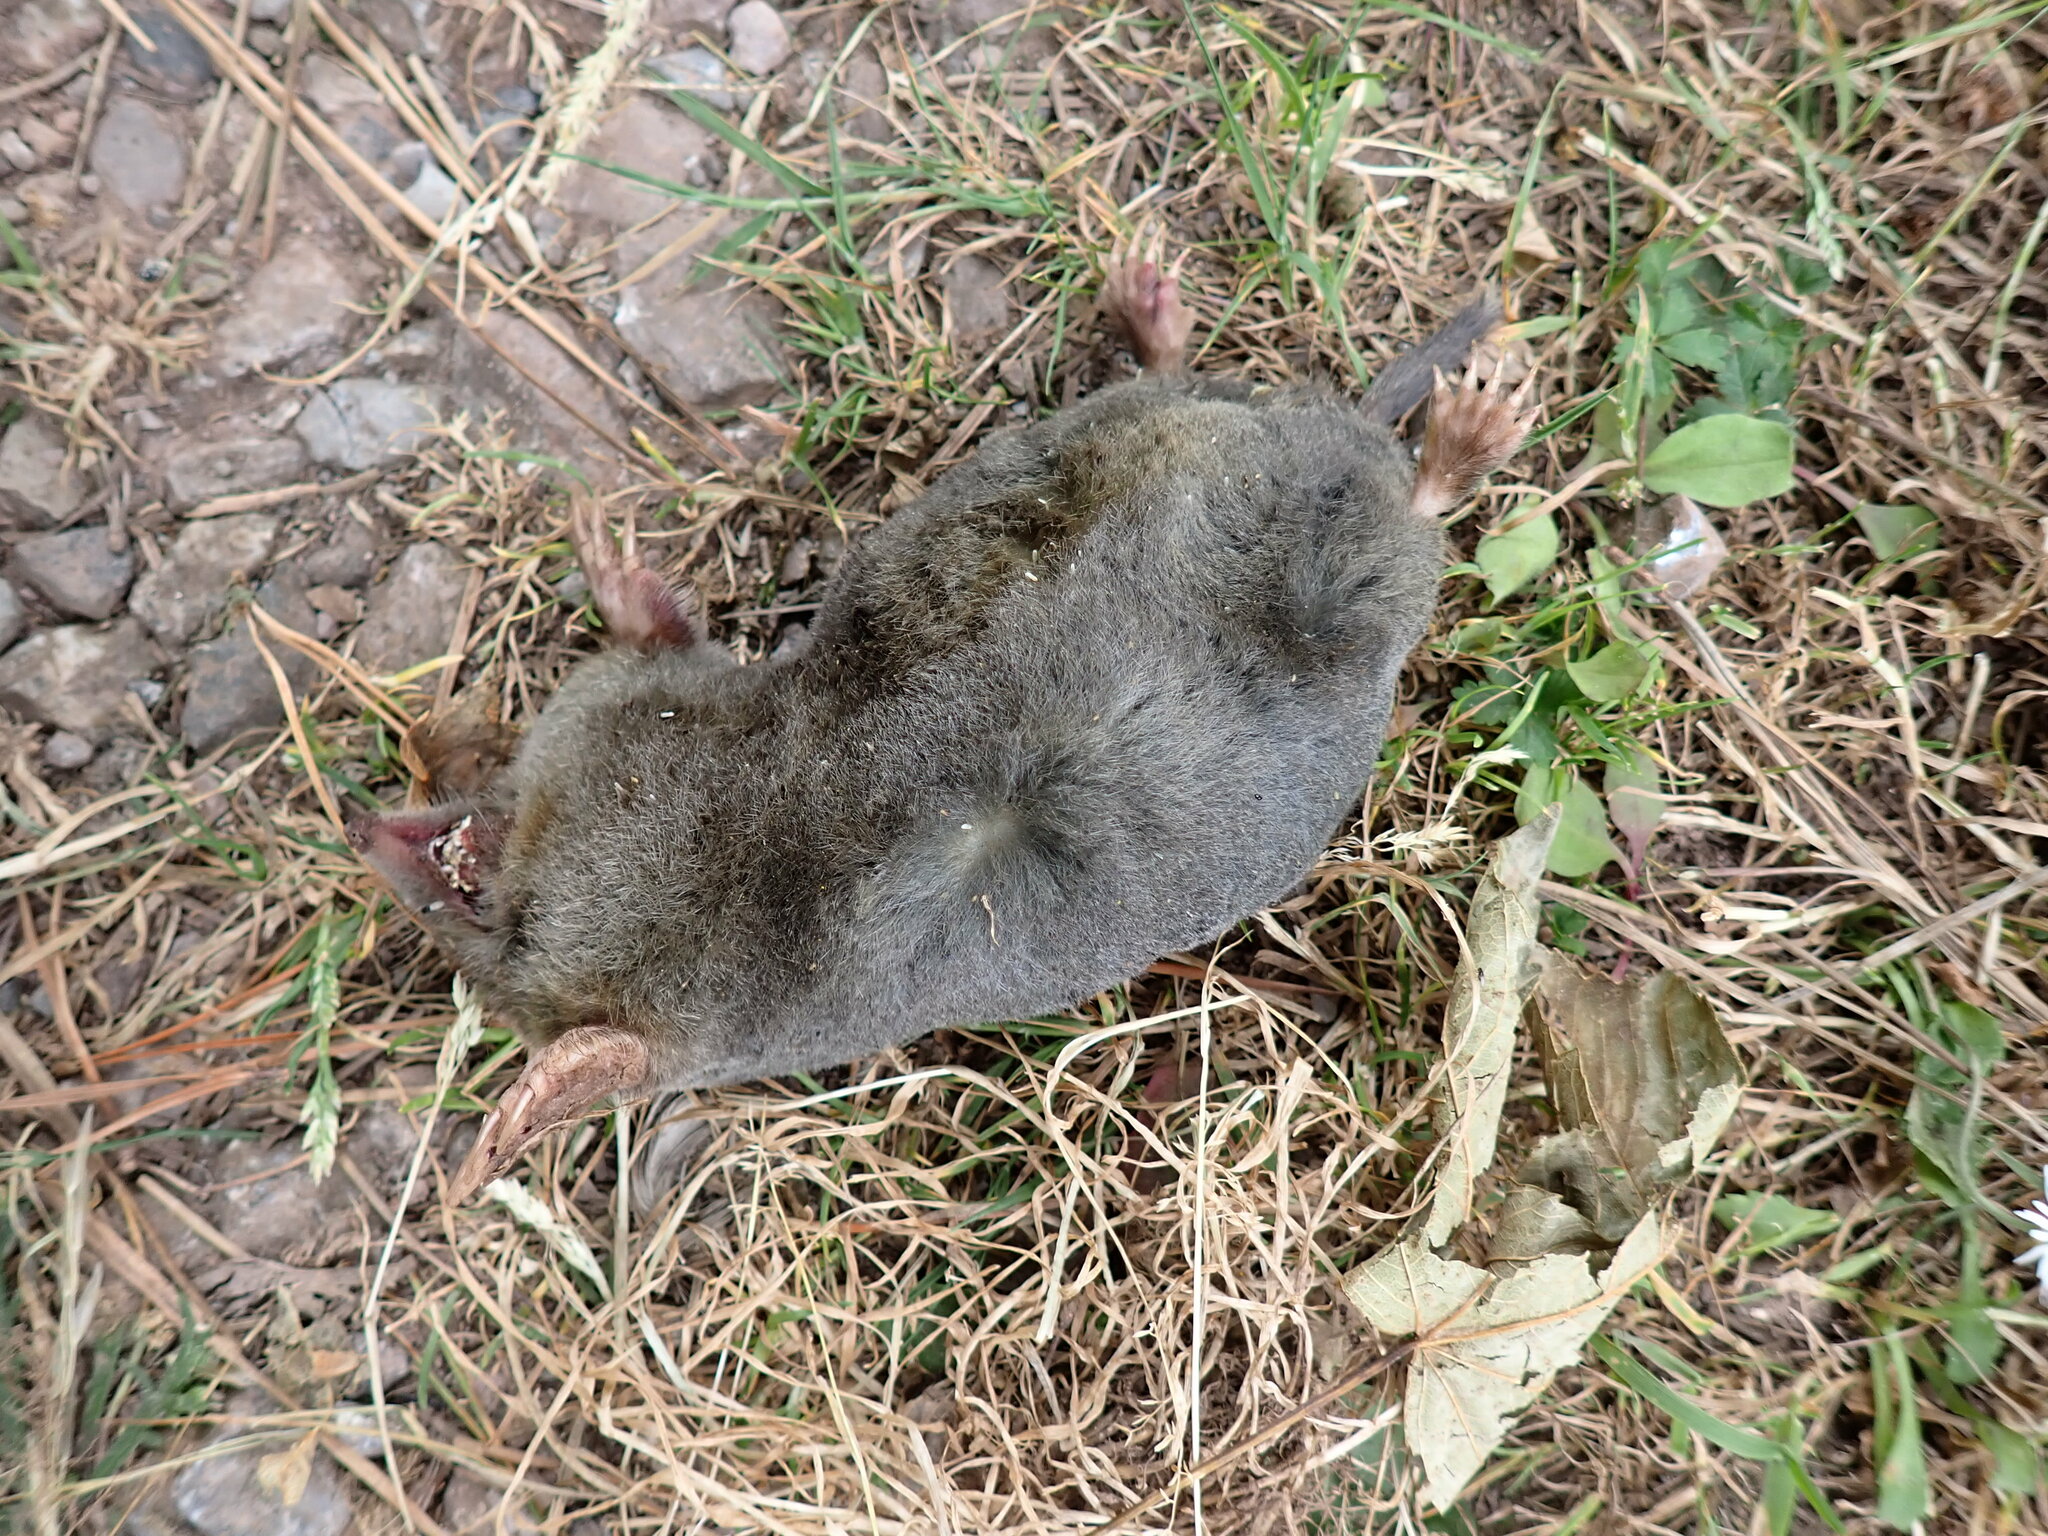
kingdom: Animalia
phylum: Chordata
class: Mammalia
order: Soricomorpha
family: Talpidae
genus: Talpa
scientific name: Talpa europaea
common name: European mole
